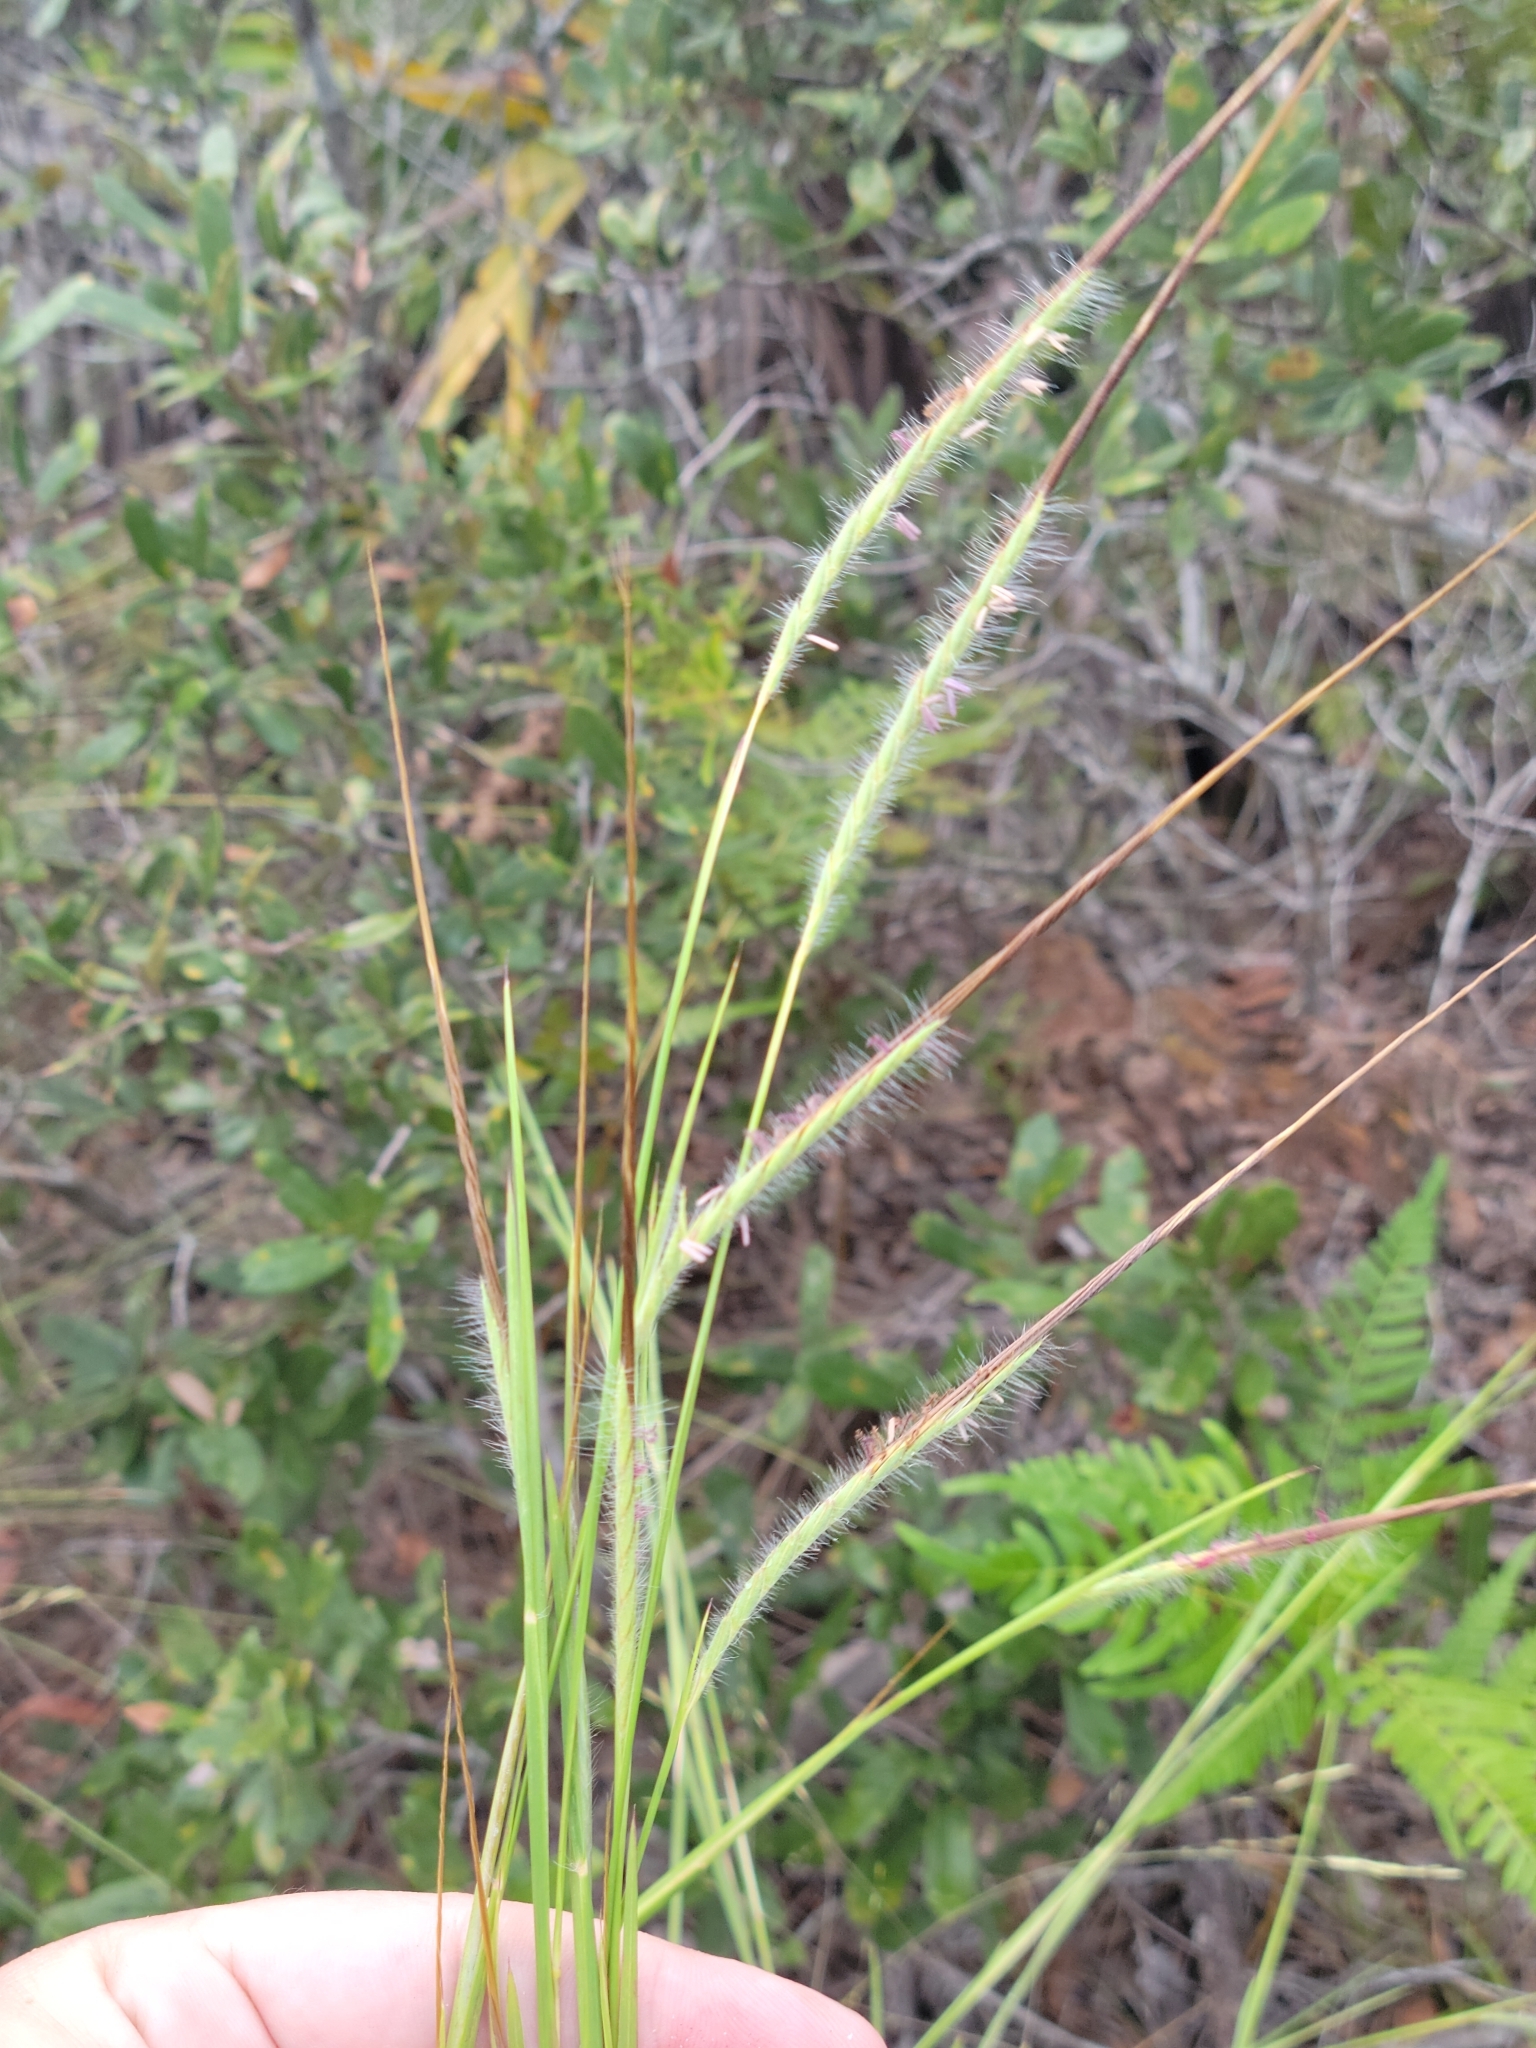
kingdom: Plantae
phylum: Tracheophyta
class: Liliopsida
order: Poales
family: Poaceae
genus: Heteropogon
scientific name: Heteropogon contortus
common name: Tanglehead
